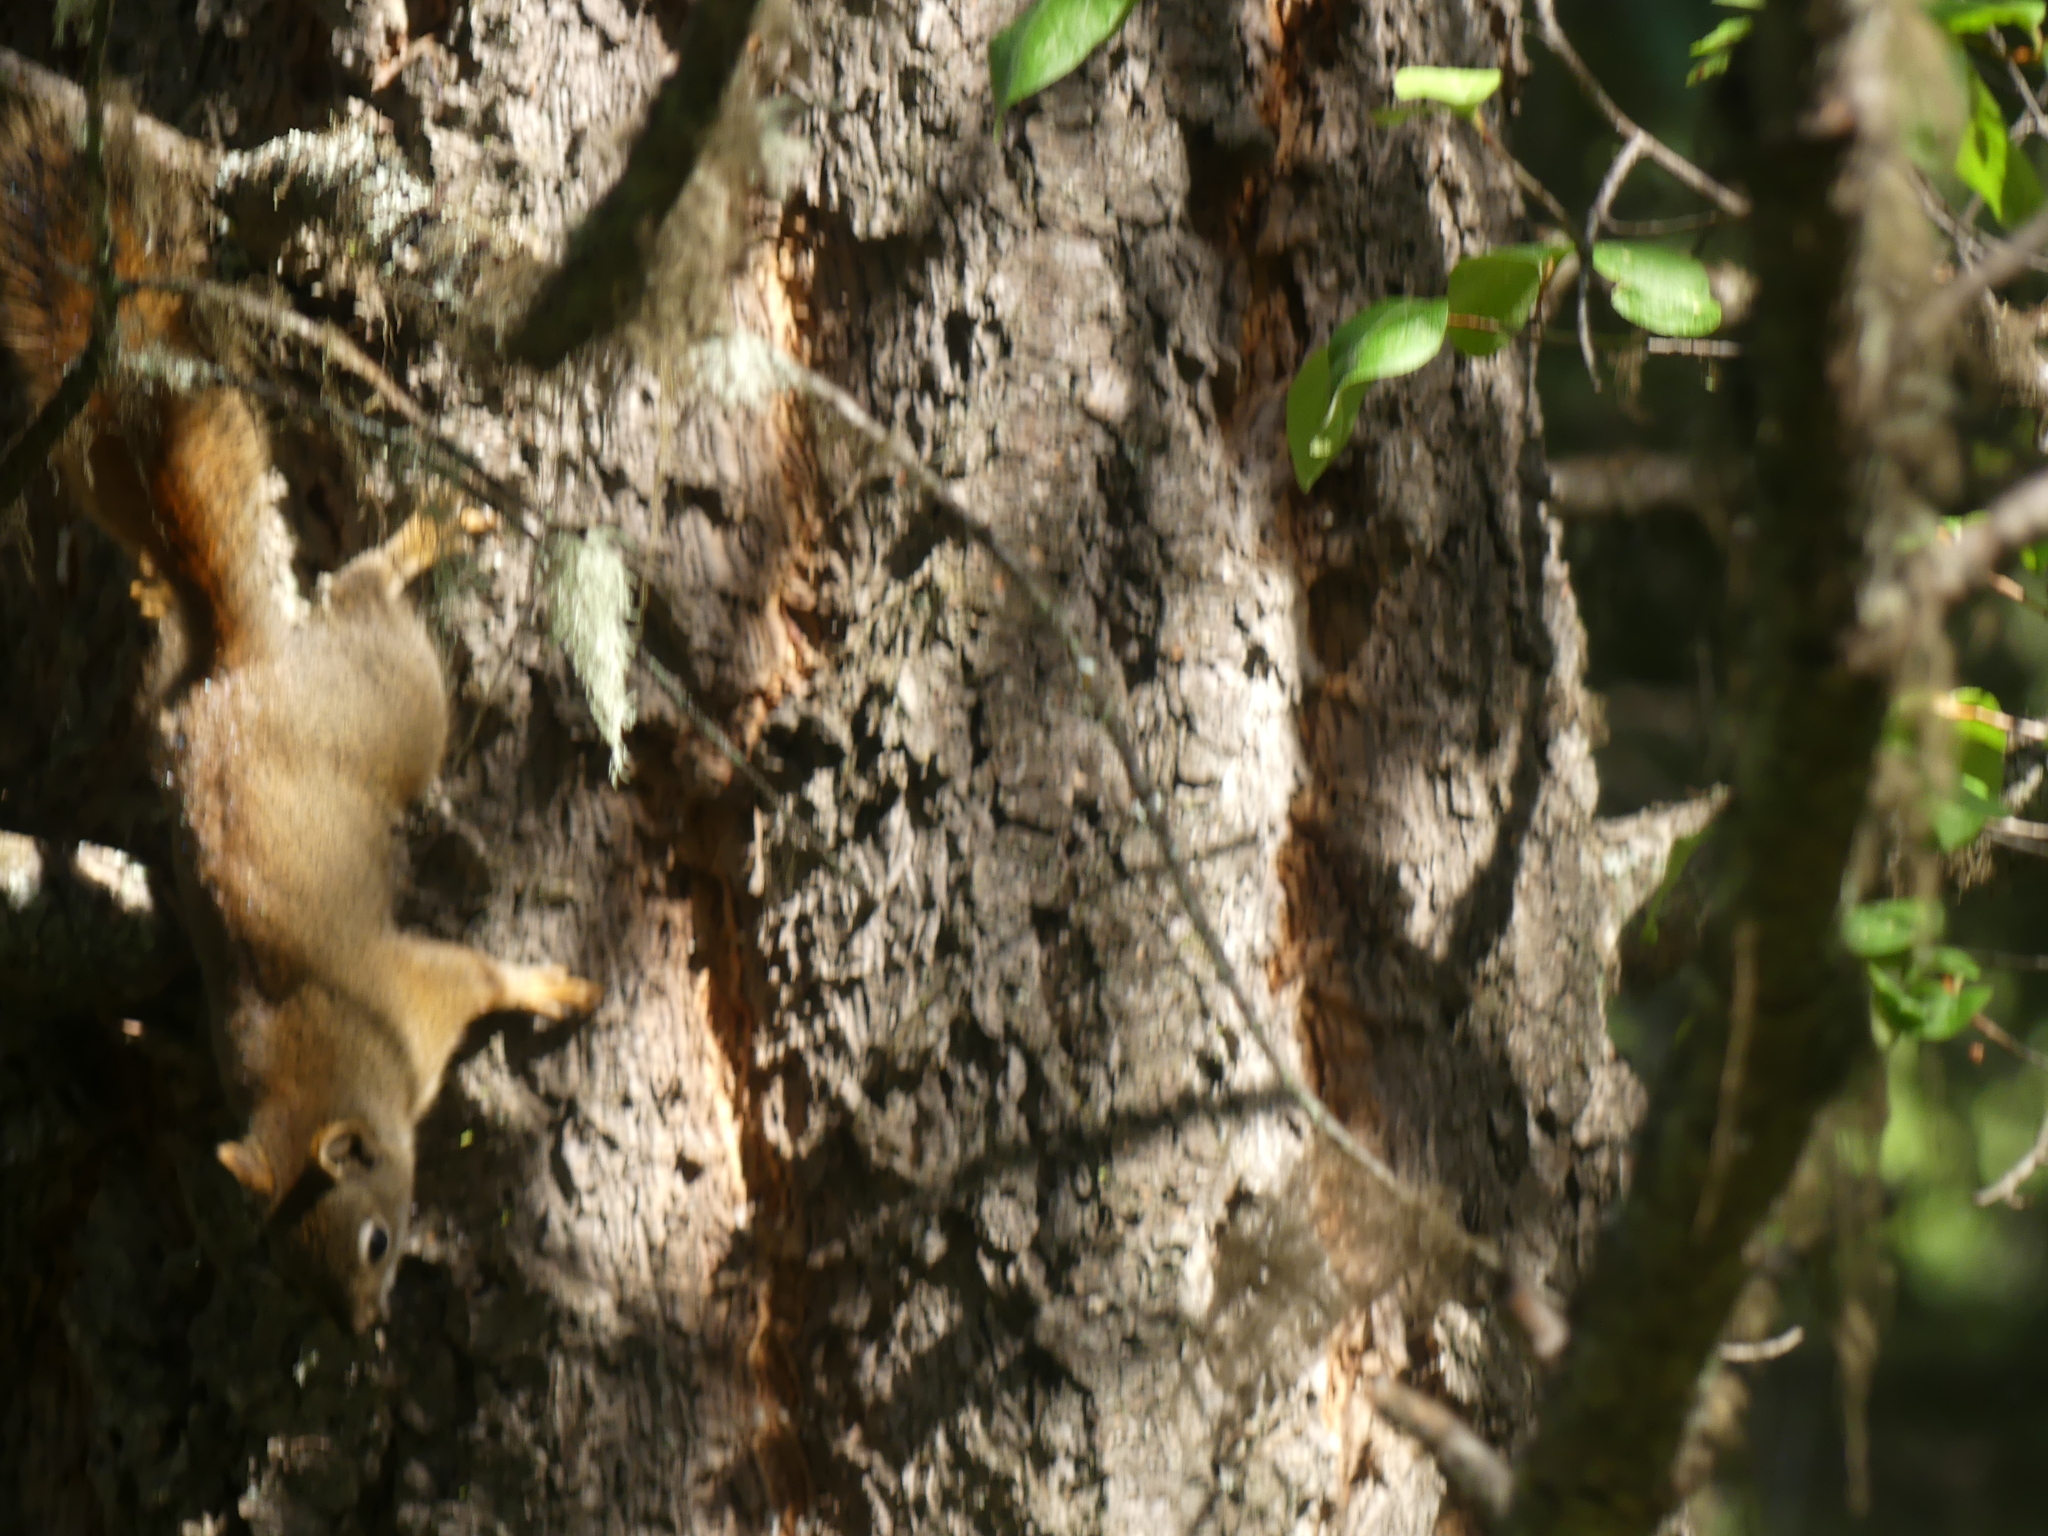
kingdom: Animalia
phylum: Chordata
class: Mammalia
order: Rodentia
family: Sciuridae
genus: Tamiasciurus
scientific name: Tamiasciurus hudsonicus
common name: Red squirrel
